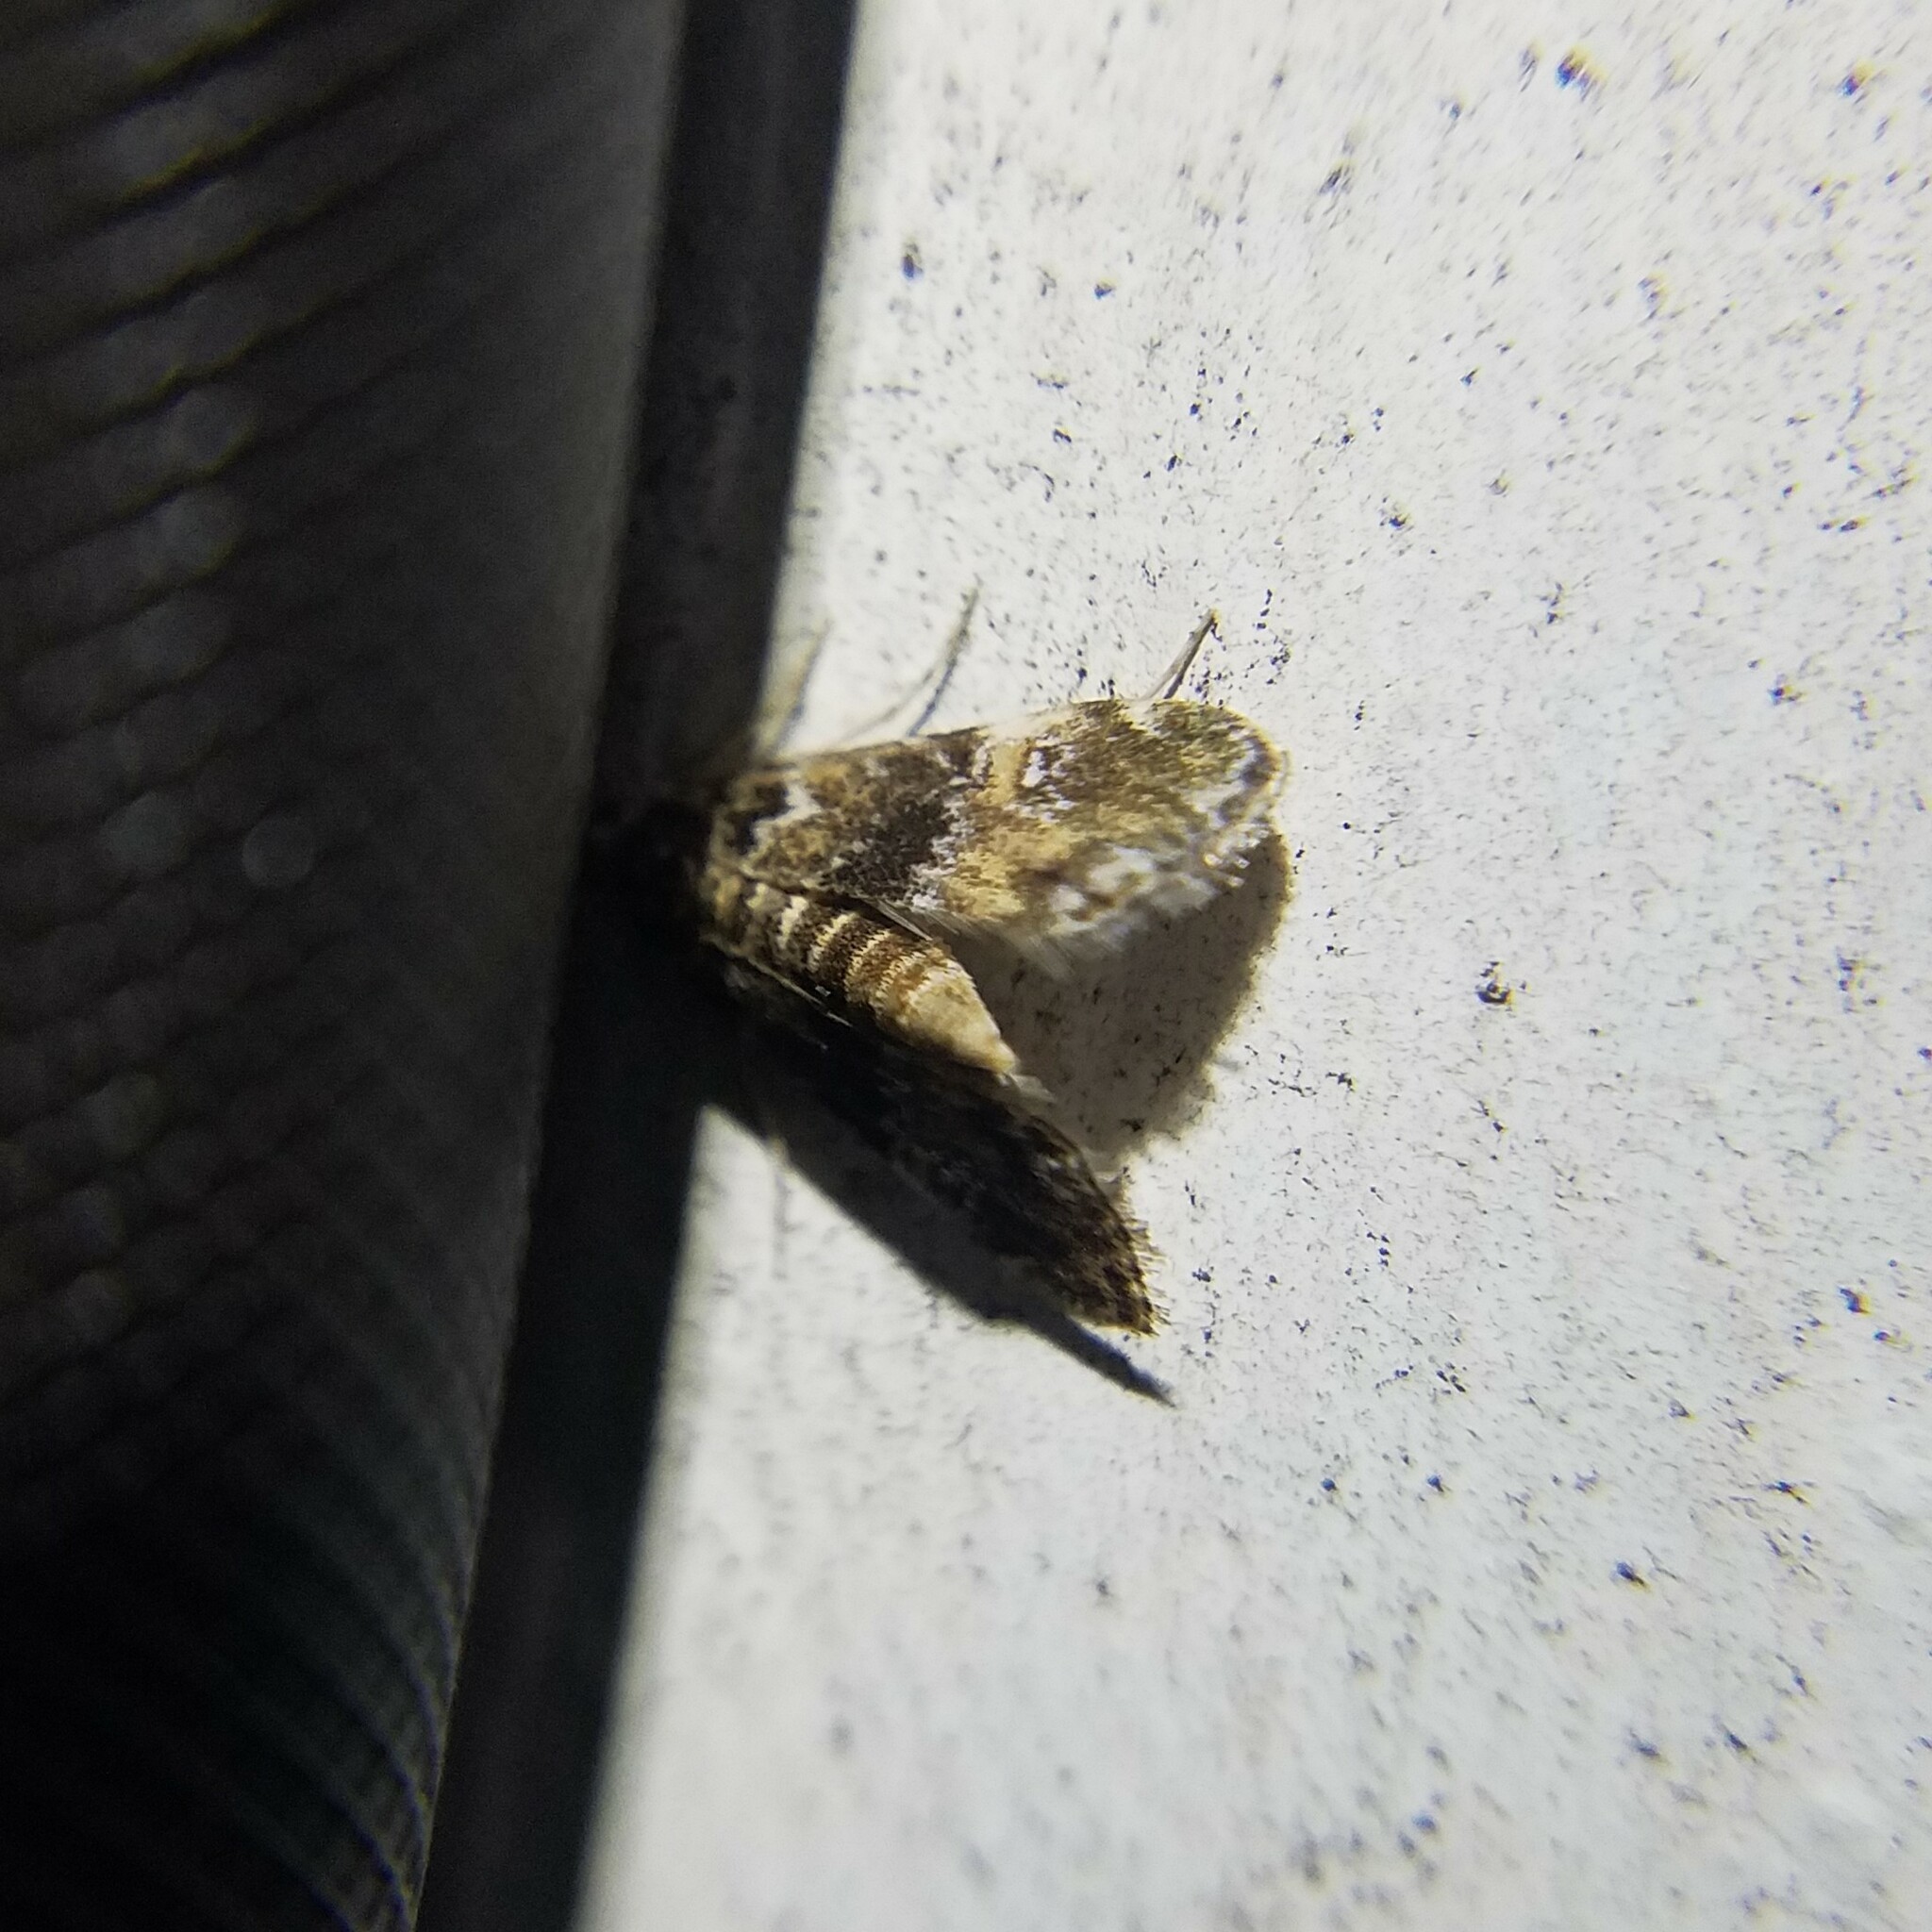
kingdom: Animalia
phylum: Arthropoda
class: Insecta
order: Lepidoptera
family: Crambidae
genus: Elophila
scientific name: Elophila obliteralis
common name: Waterlily leafcutter moth
